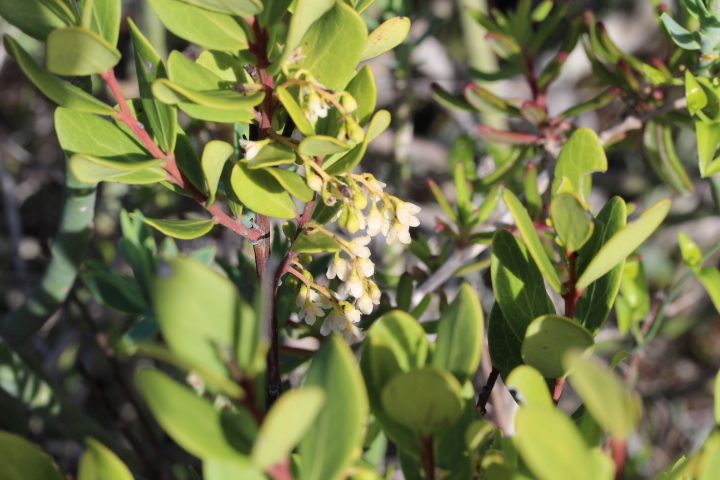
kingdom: Plantae
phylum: Tracheophyta
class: Magnoliopsida
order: Ericales
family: Ebenaceae
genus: Euclea
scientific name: Euclea racemosa
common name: Dune guarri
